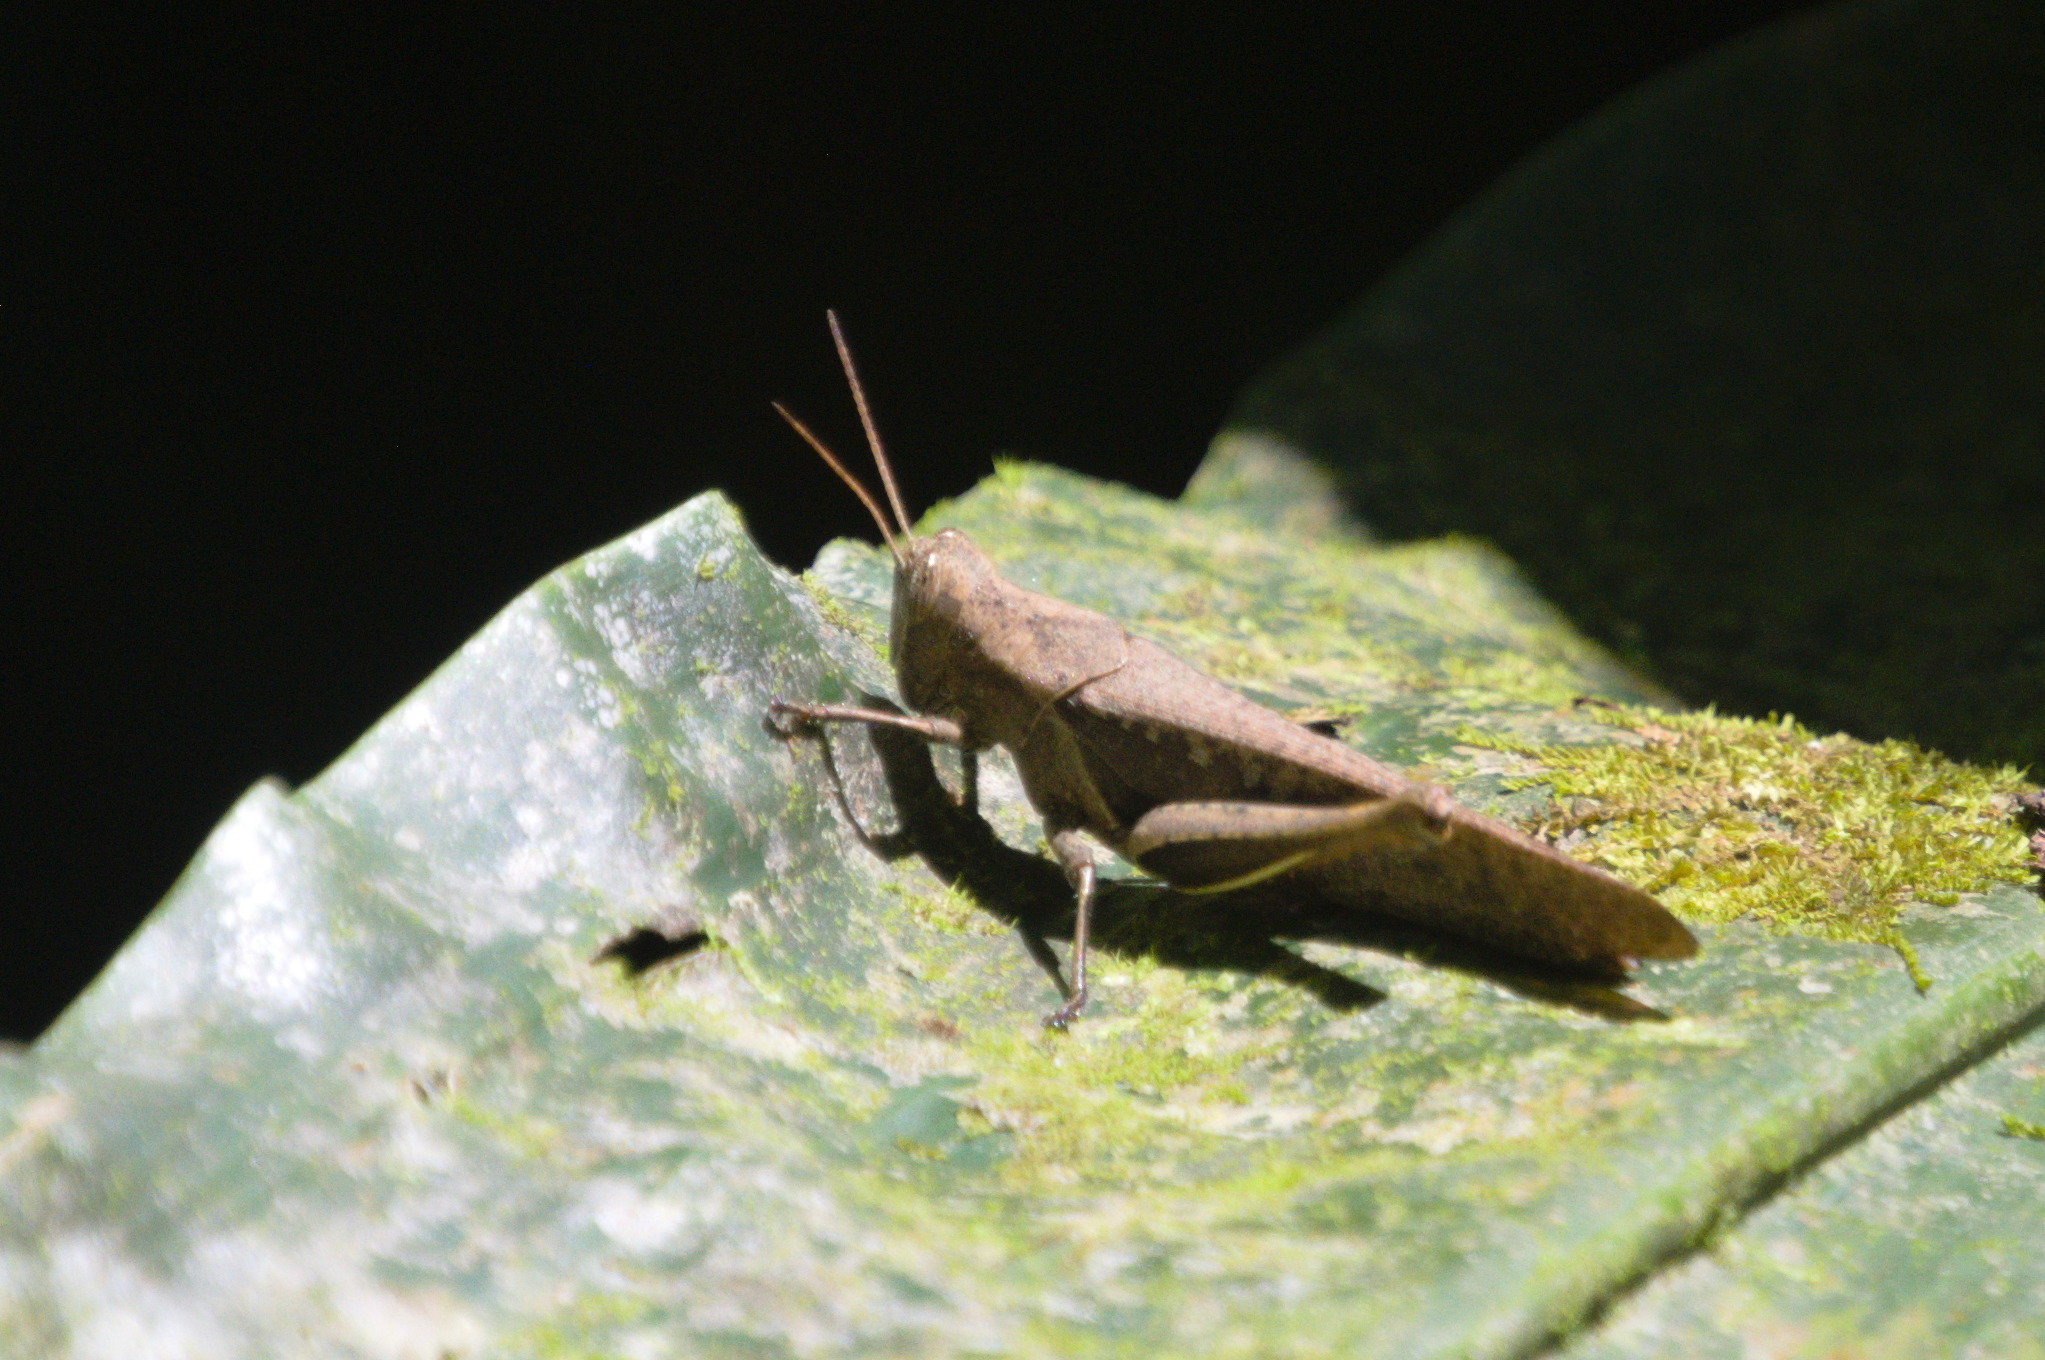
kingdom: Animalia
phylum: Arthropoda
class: Insecta
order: Orthoptera
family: Acrididae
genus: Abracris
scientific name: Abracris flavolineata
